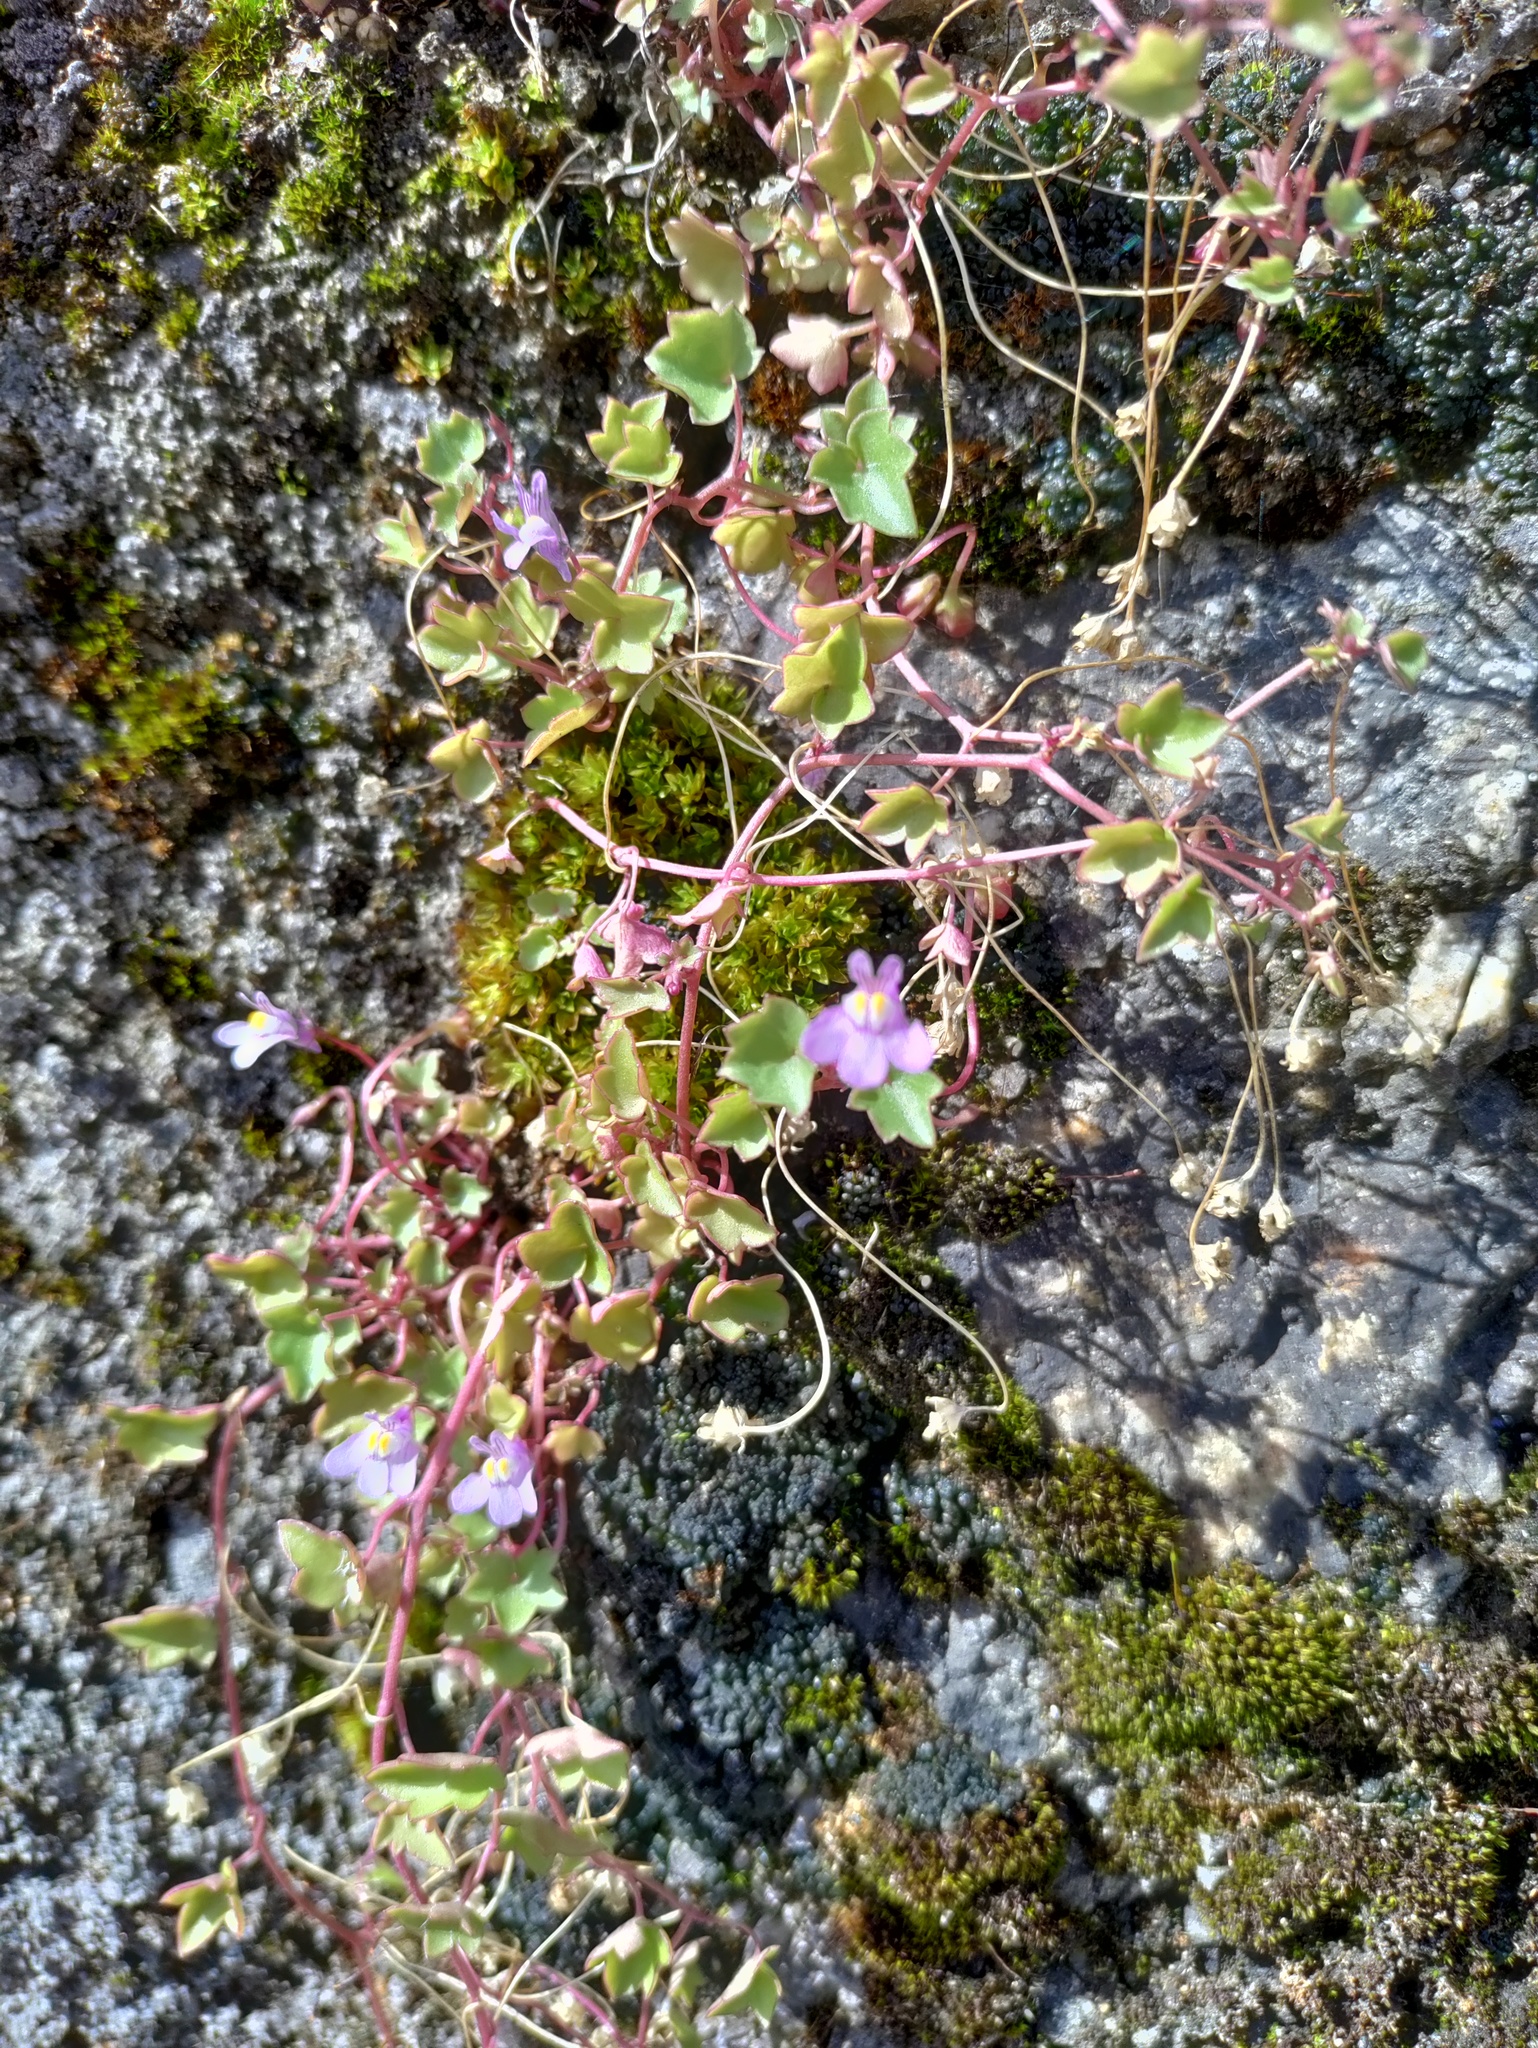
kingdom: Plantae
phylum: Tracheophyta
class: Magnoliopsida
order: Lamiales
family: Plantaginaceae
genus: Cymbalaria
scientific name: Cymbalaria muralis
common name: Ivy-leaved toadflax
